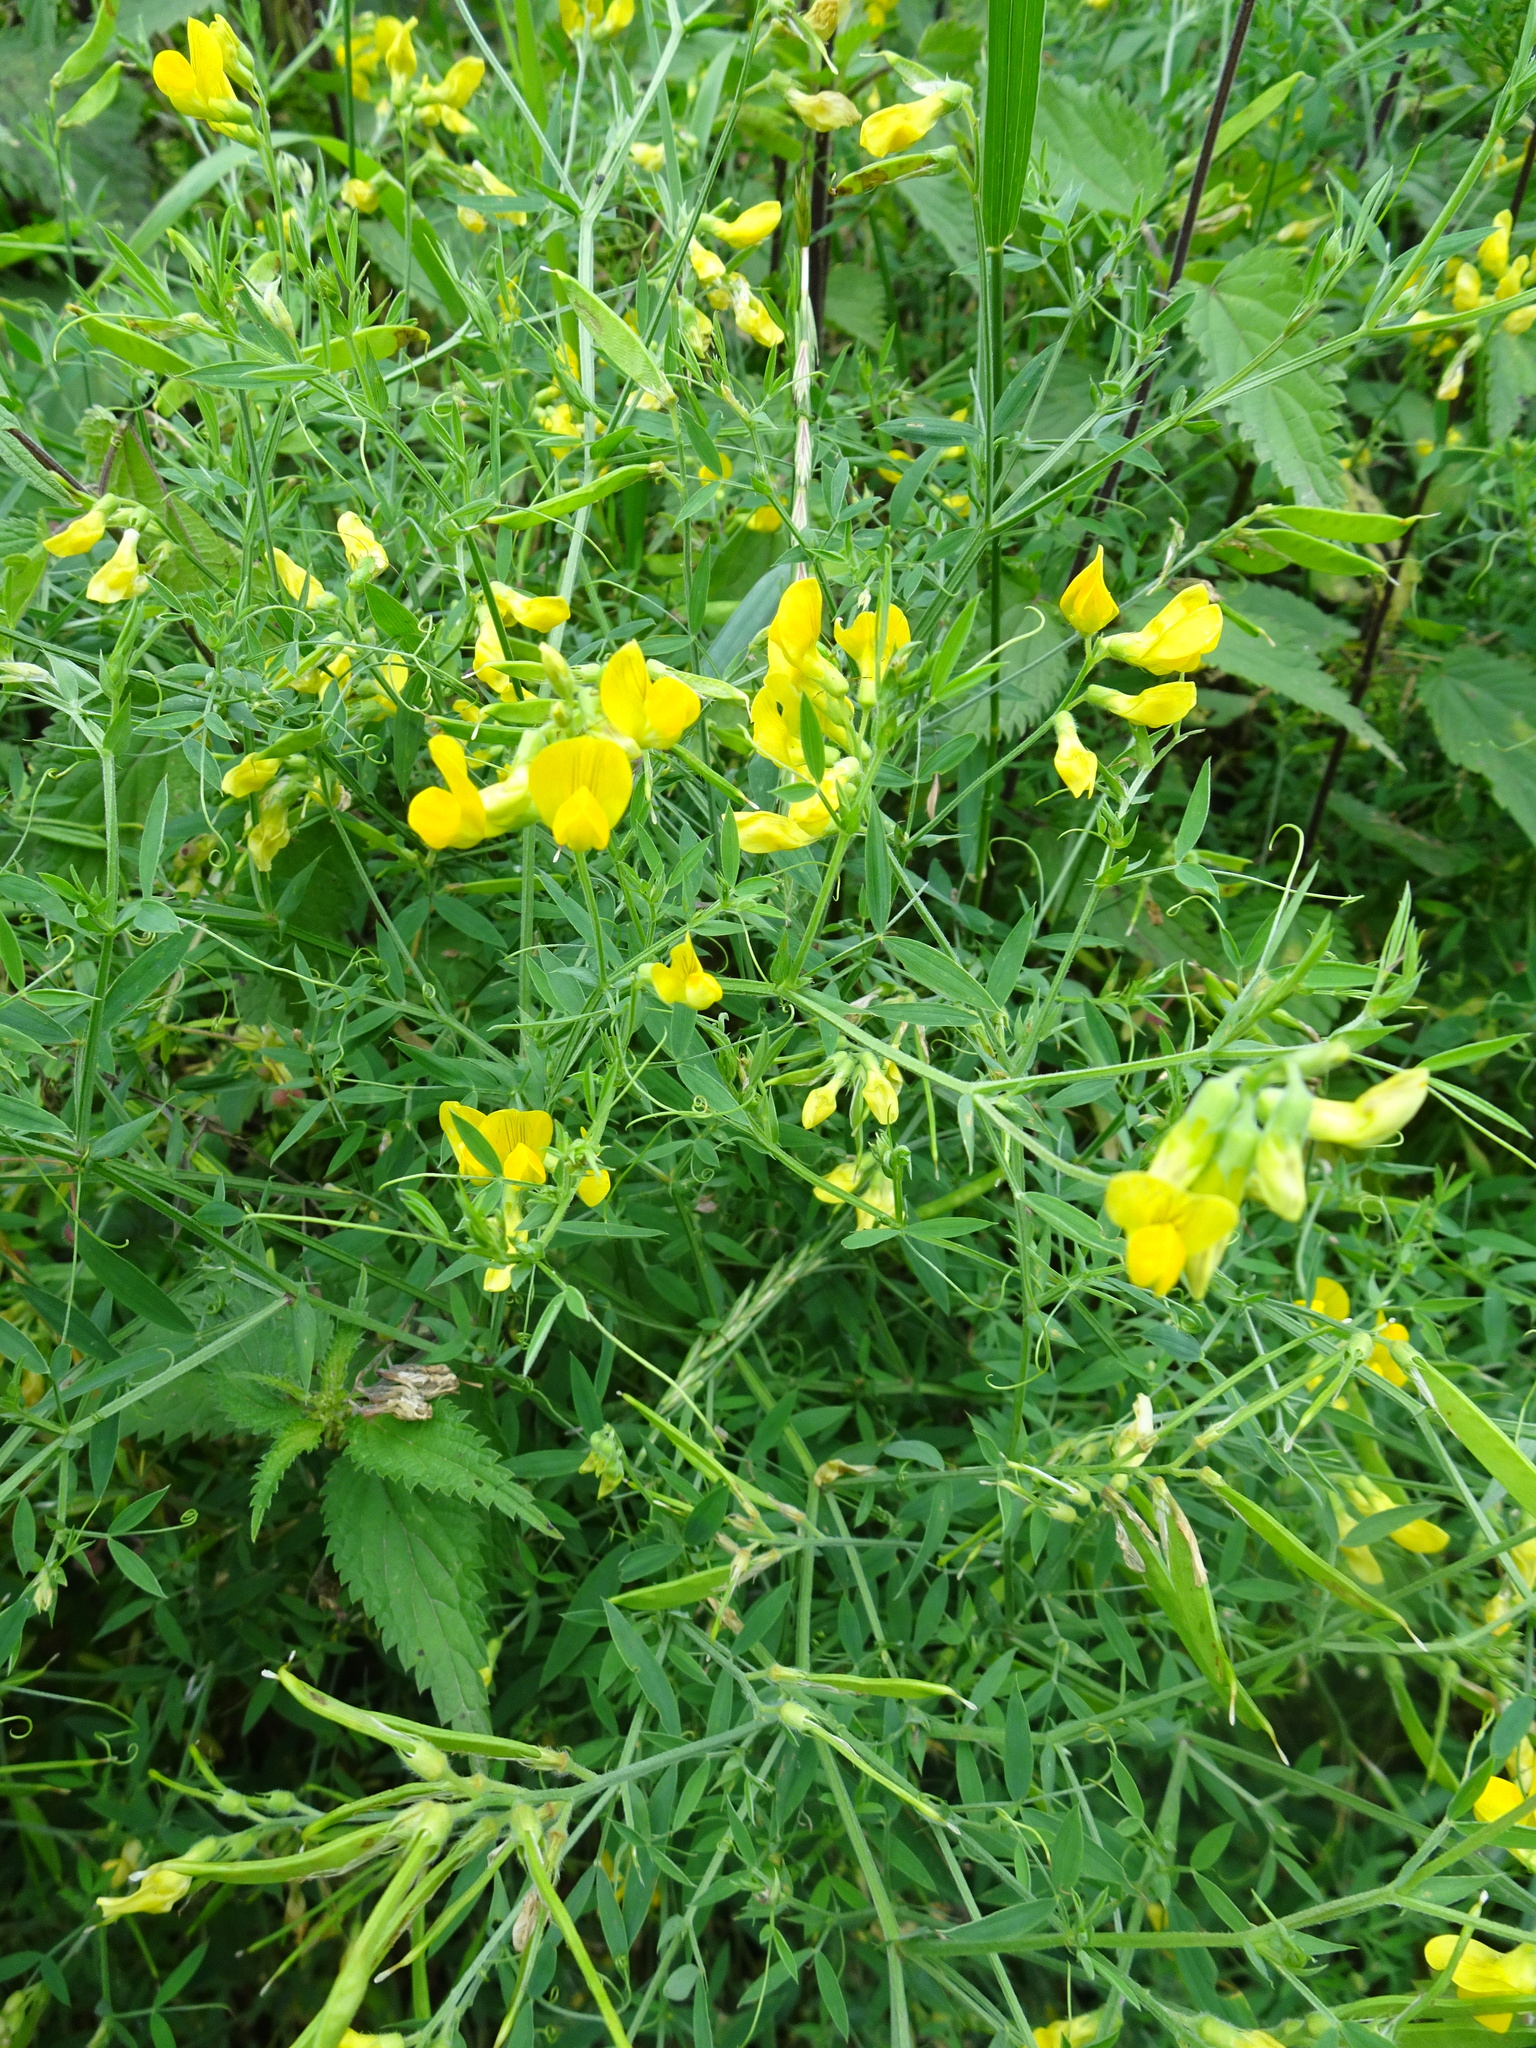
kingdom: Plantae
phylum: Tracheophyta
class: Magnoliopsida
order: Fabales
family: Fabaceae
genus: Lathyrus
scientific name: Lathyrus pratensis
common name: Meadow vetchling
